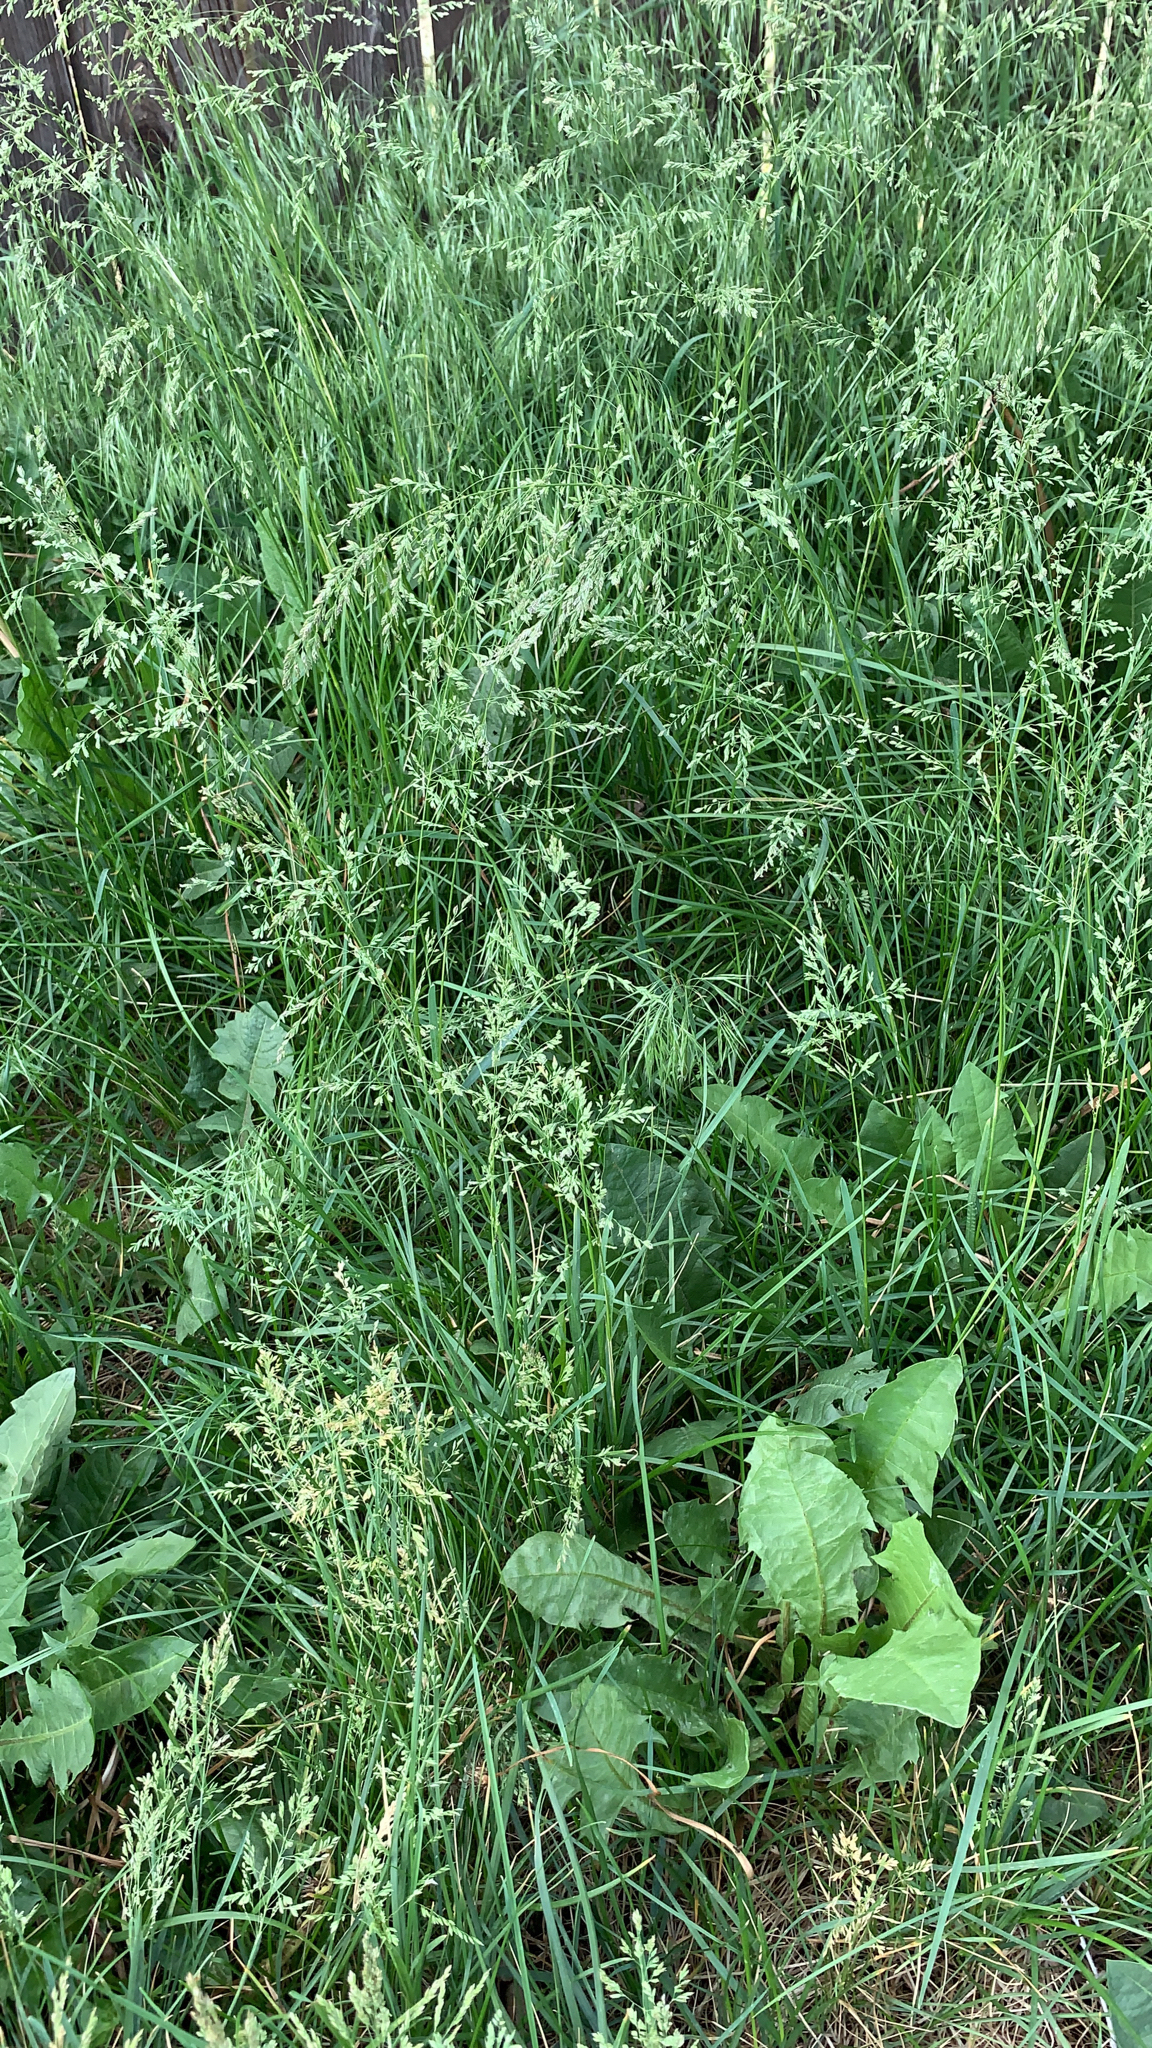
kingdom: Plantae
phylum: Tracheophyta
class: Liliopsida
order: Poales
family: Poaceae
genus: Poa
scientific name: Poa pratensis
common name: Kentucky bluegrass
